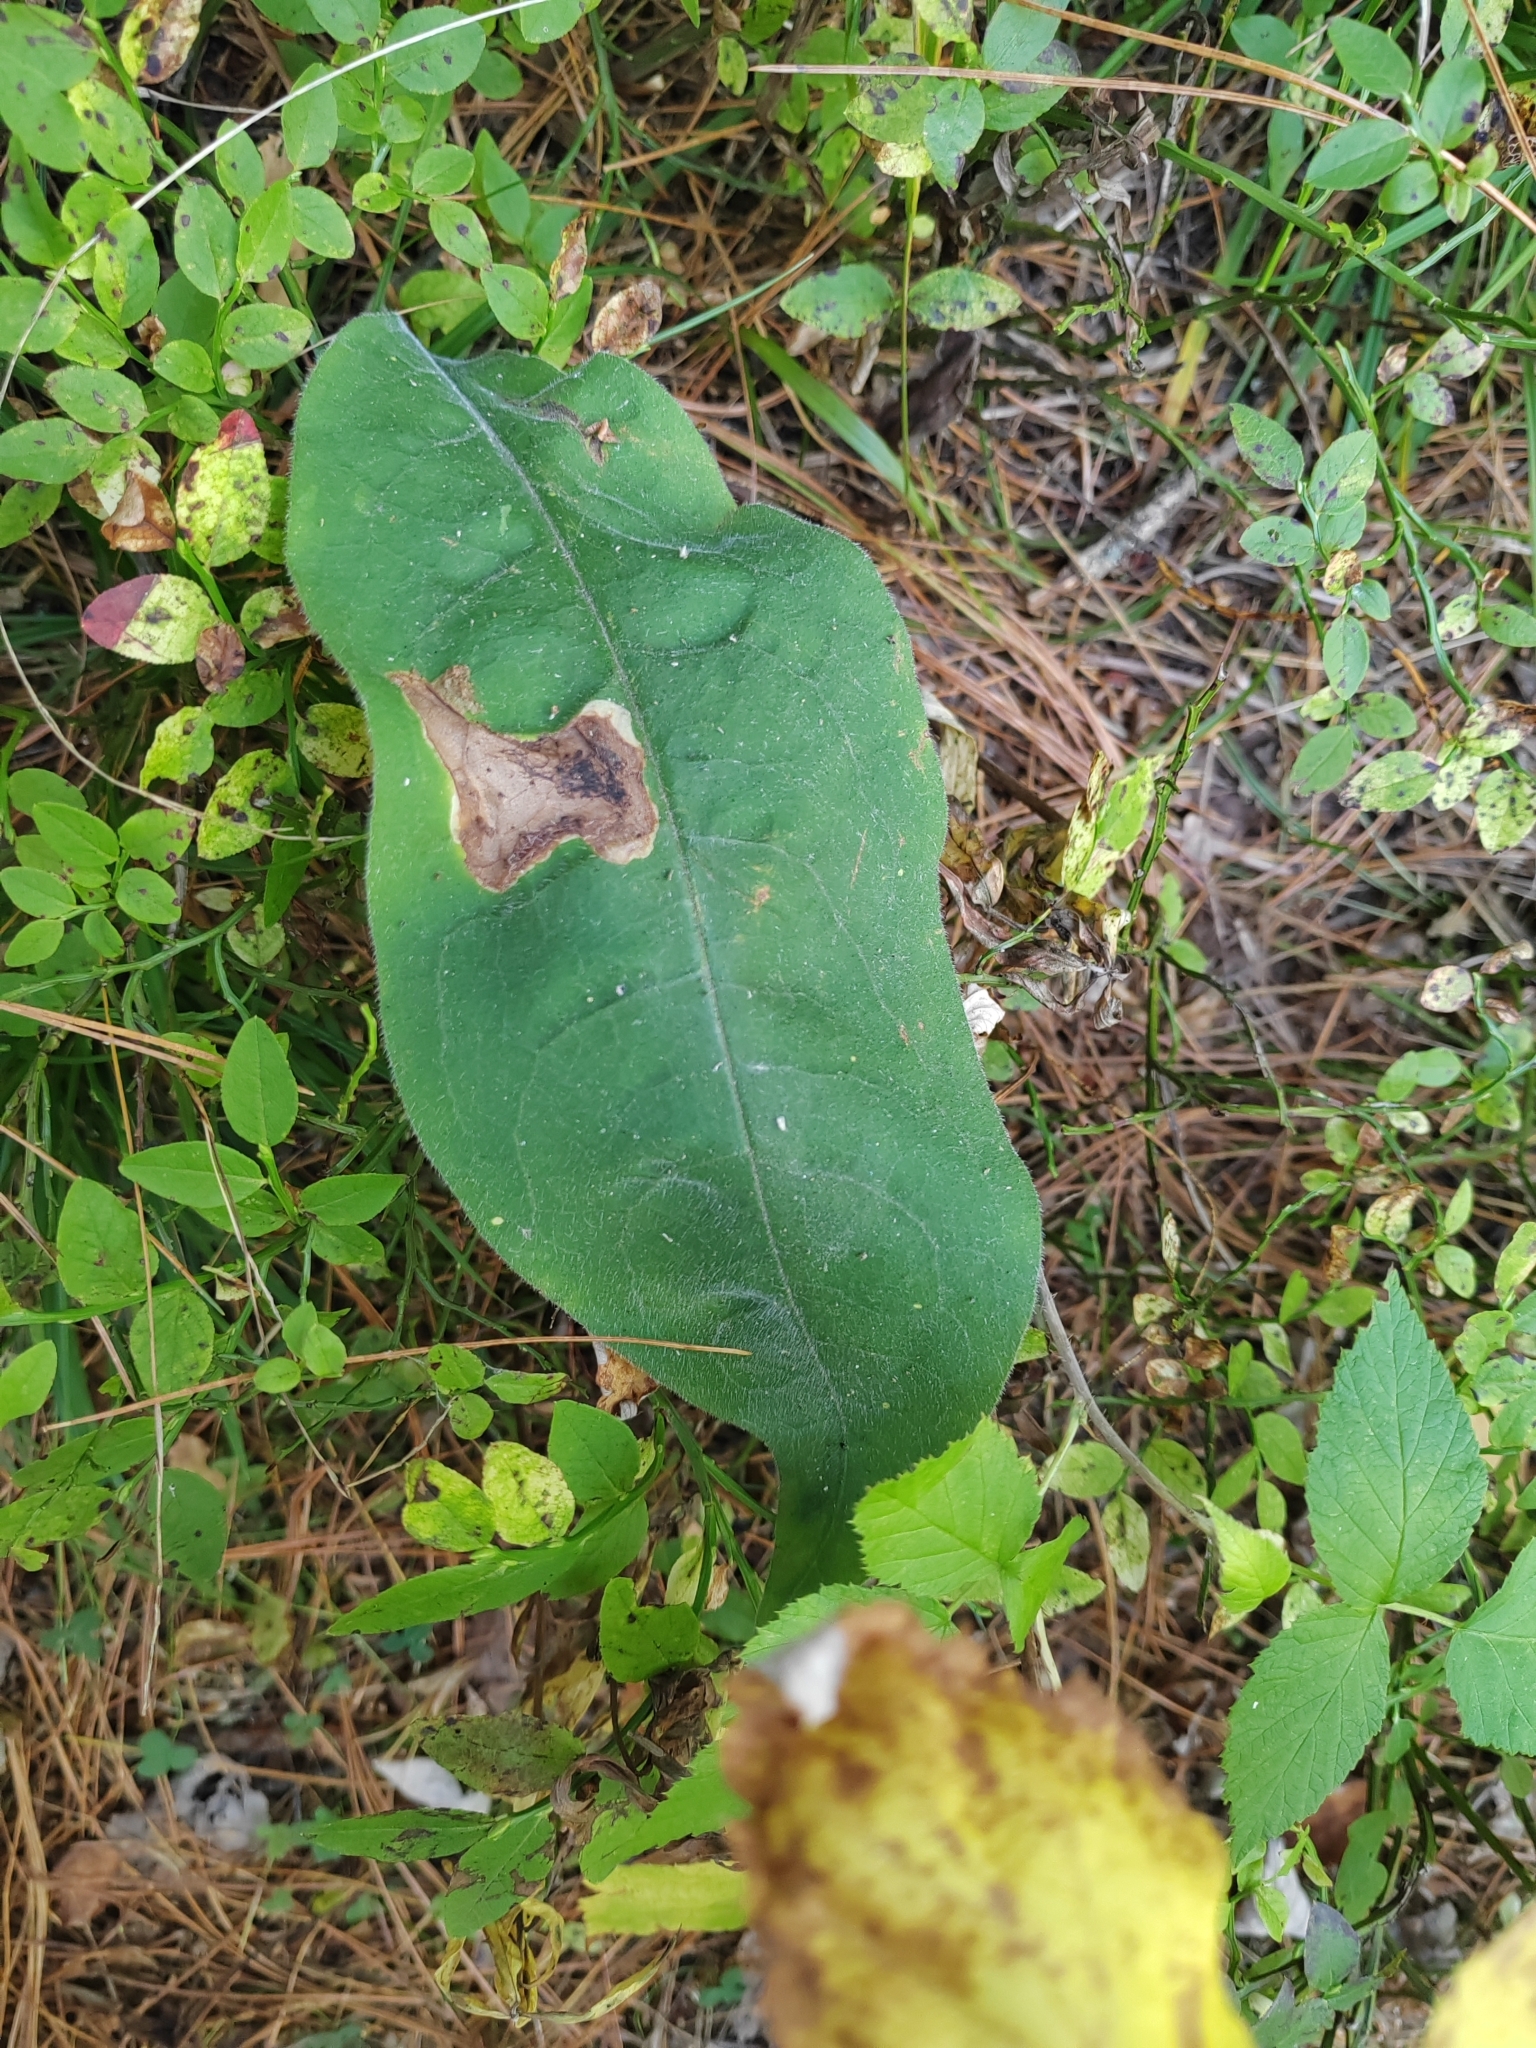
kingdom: Plantae
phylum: Tracheophyta
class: Magnoliopsida
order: Boraginales
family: Boraginaceae
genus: Pulmonaria
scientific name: Pulmonaria mollis
